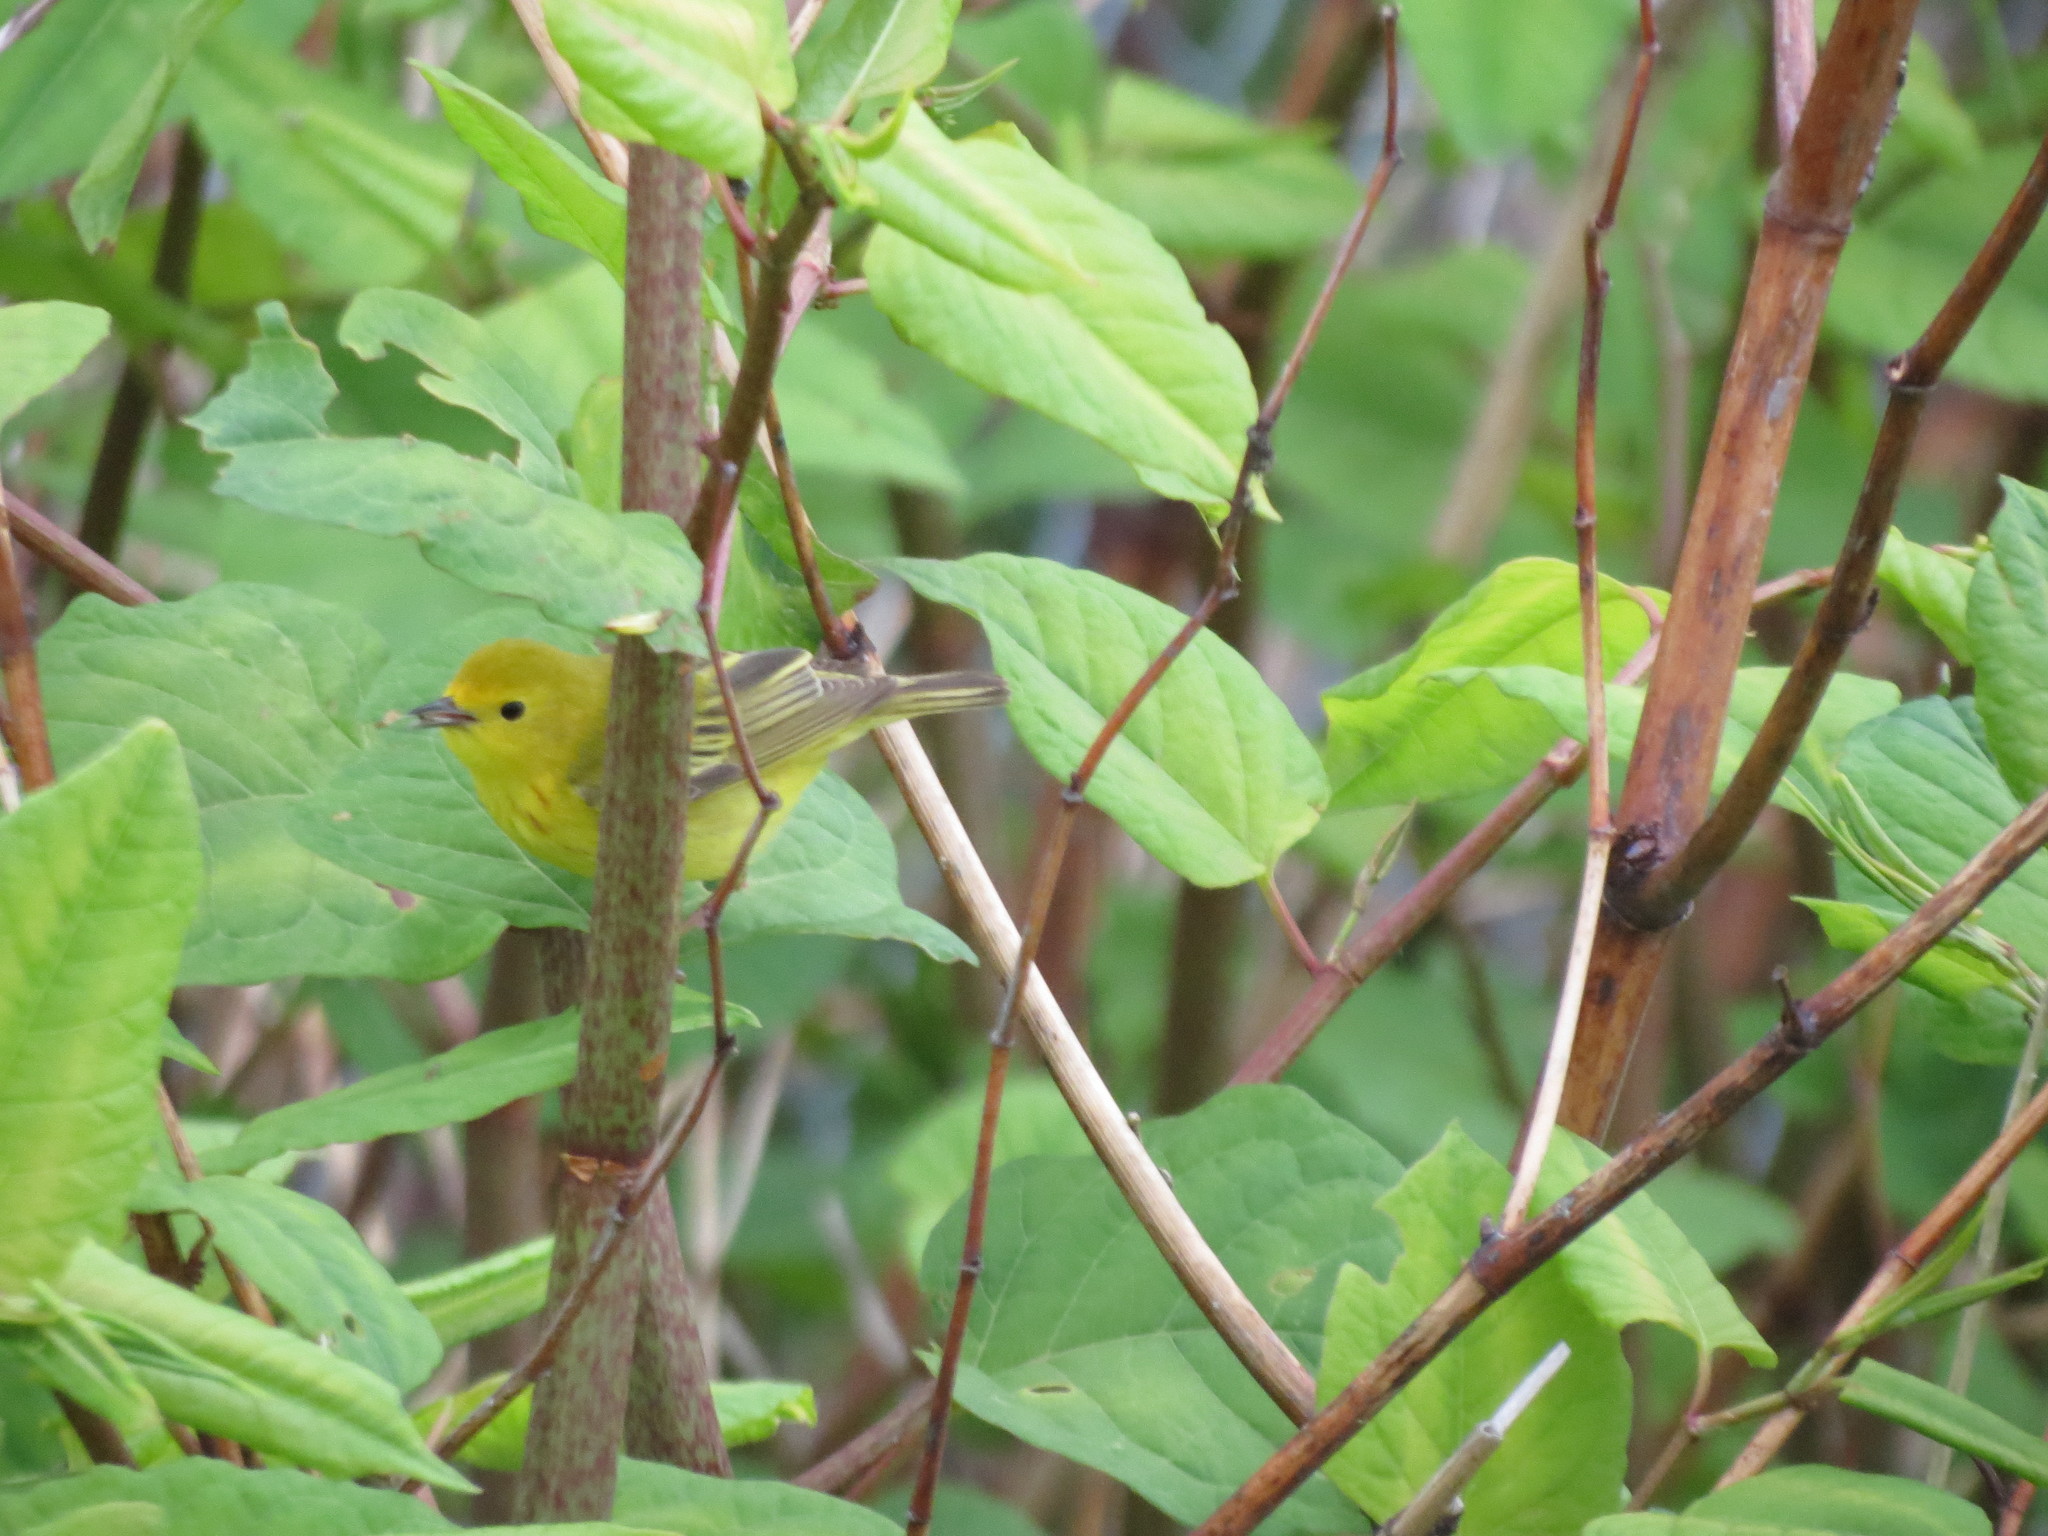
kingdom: Animalia
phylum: Chordata
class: Aves
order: Passeriformes
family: Parulidae
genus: Setophaga
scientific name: Setophaga petechia
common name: Yellow warbler
